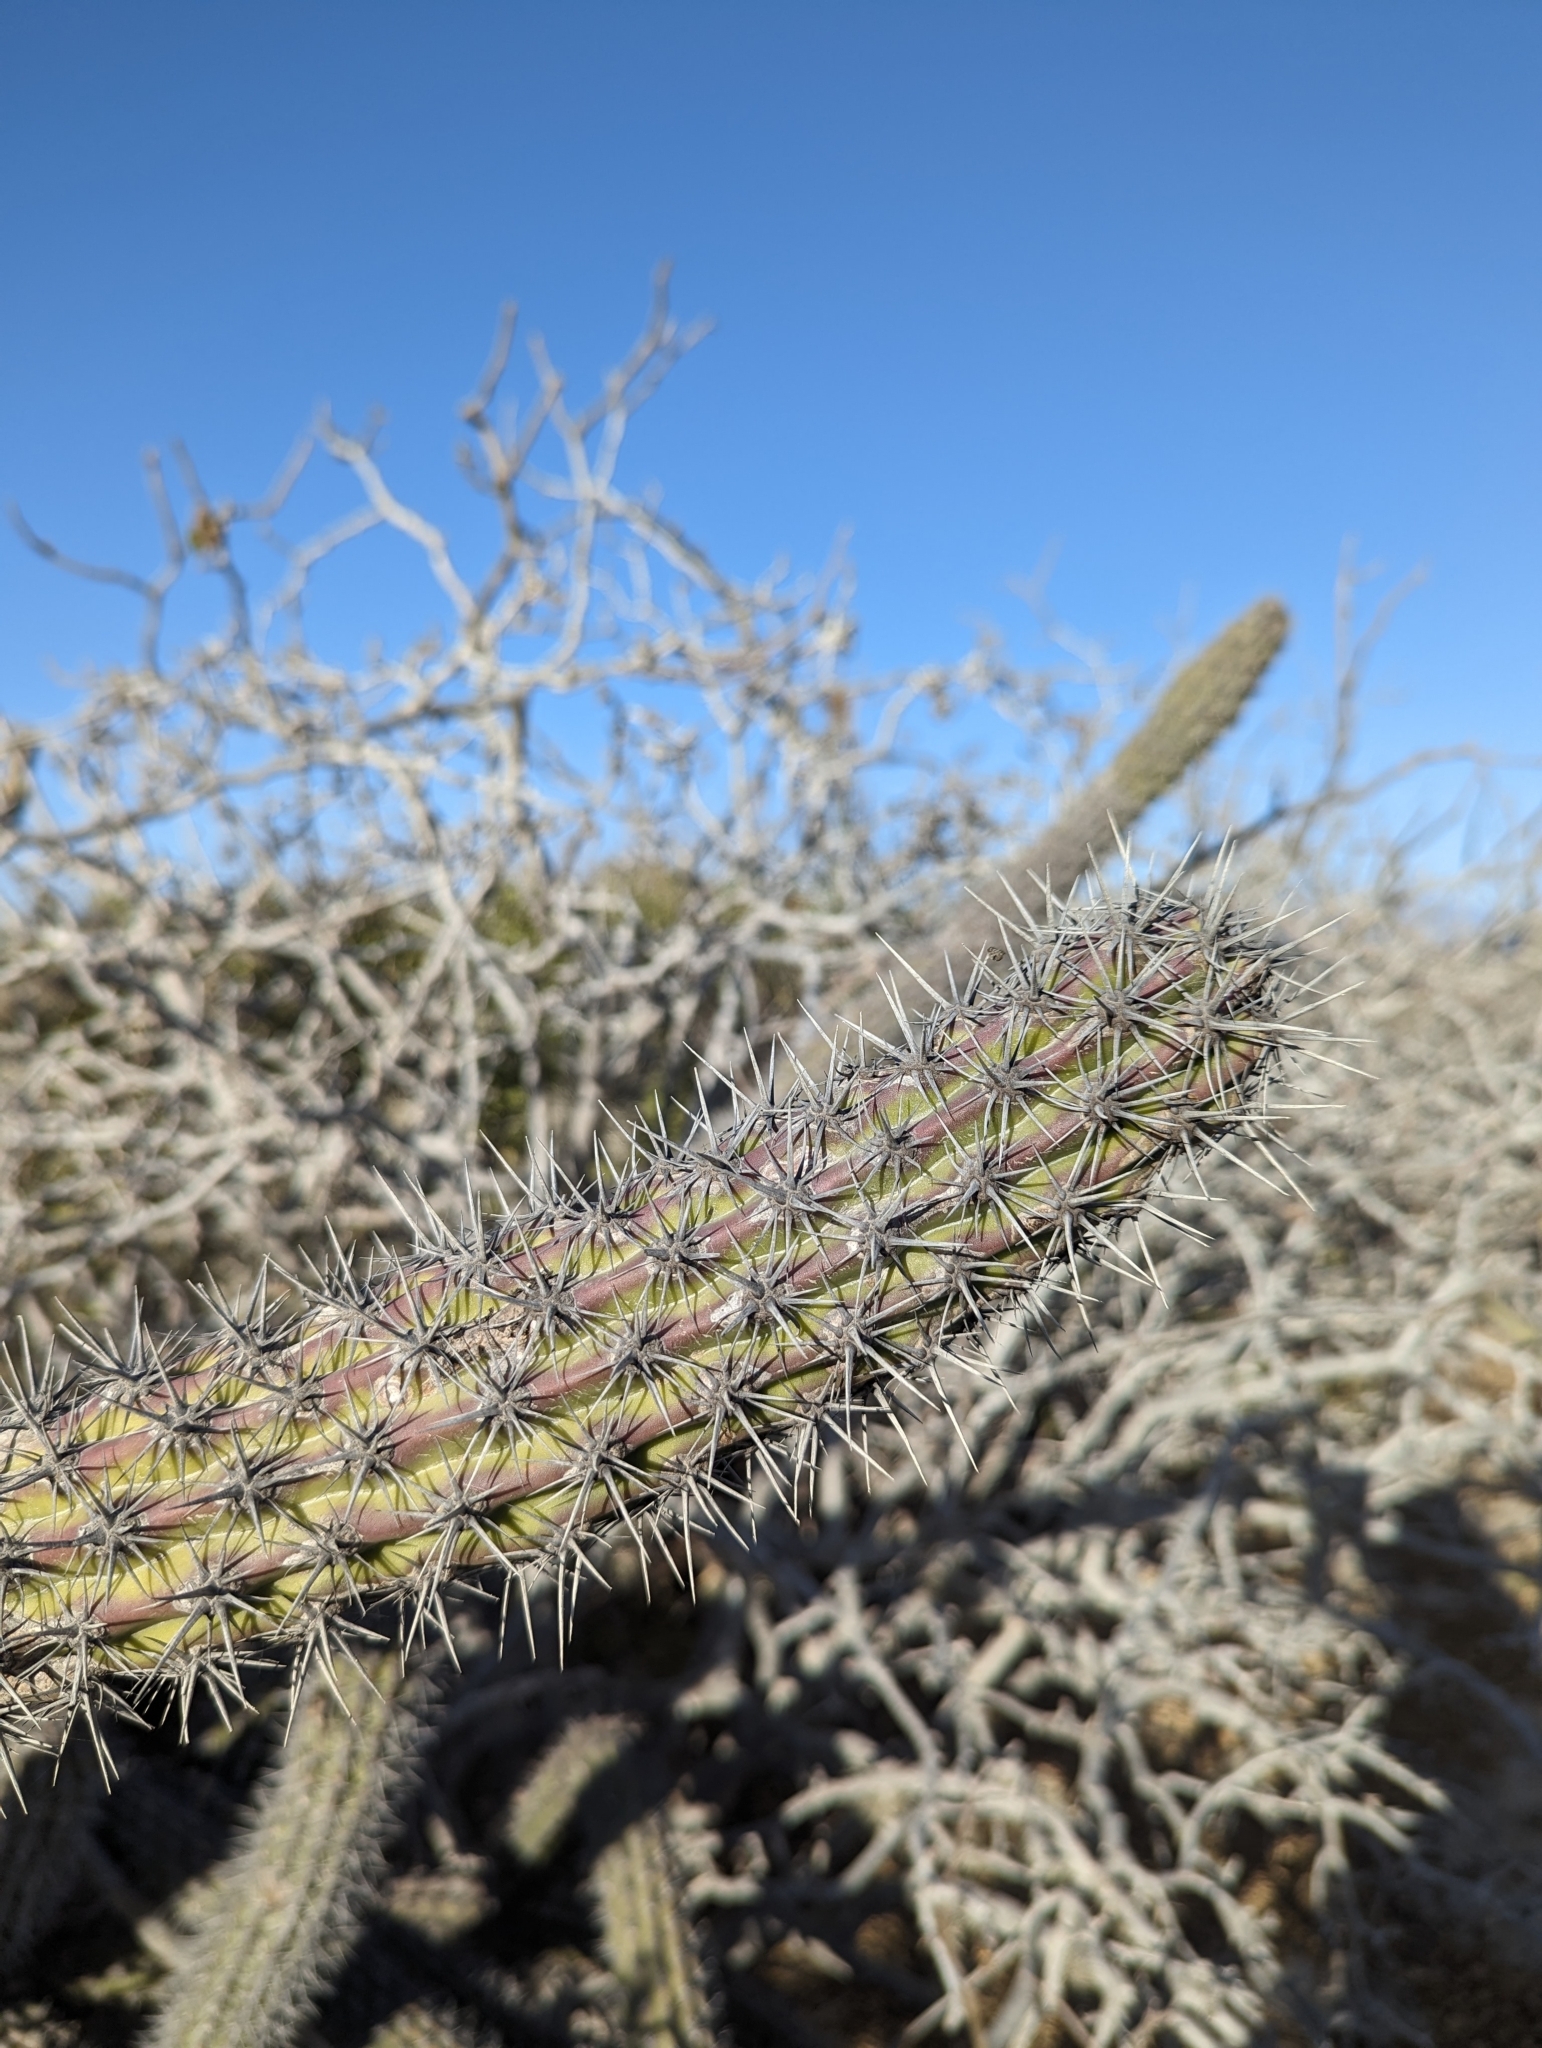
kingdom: Plantae
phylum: Tracheophyta
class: Magnoliopsida
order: Caryophyllales
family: Cactaceae
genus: Stenocereus
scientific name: Stenocereus gummosus
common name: Dagger cactus
